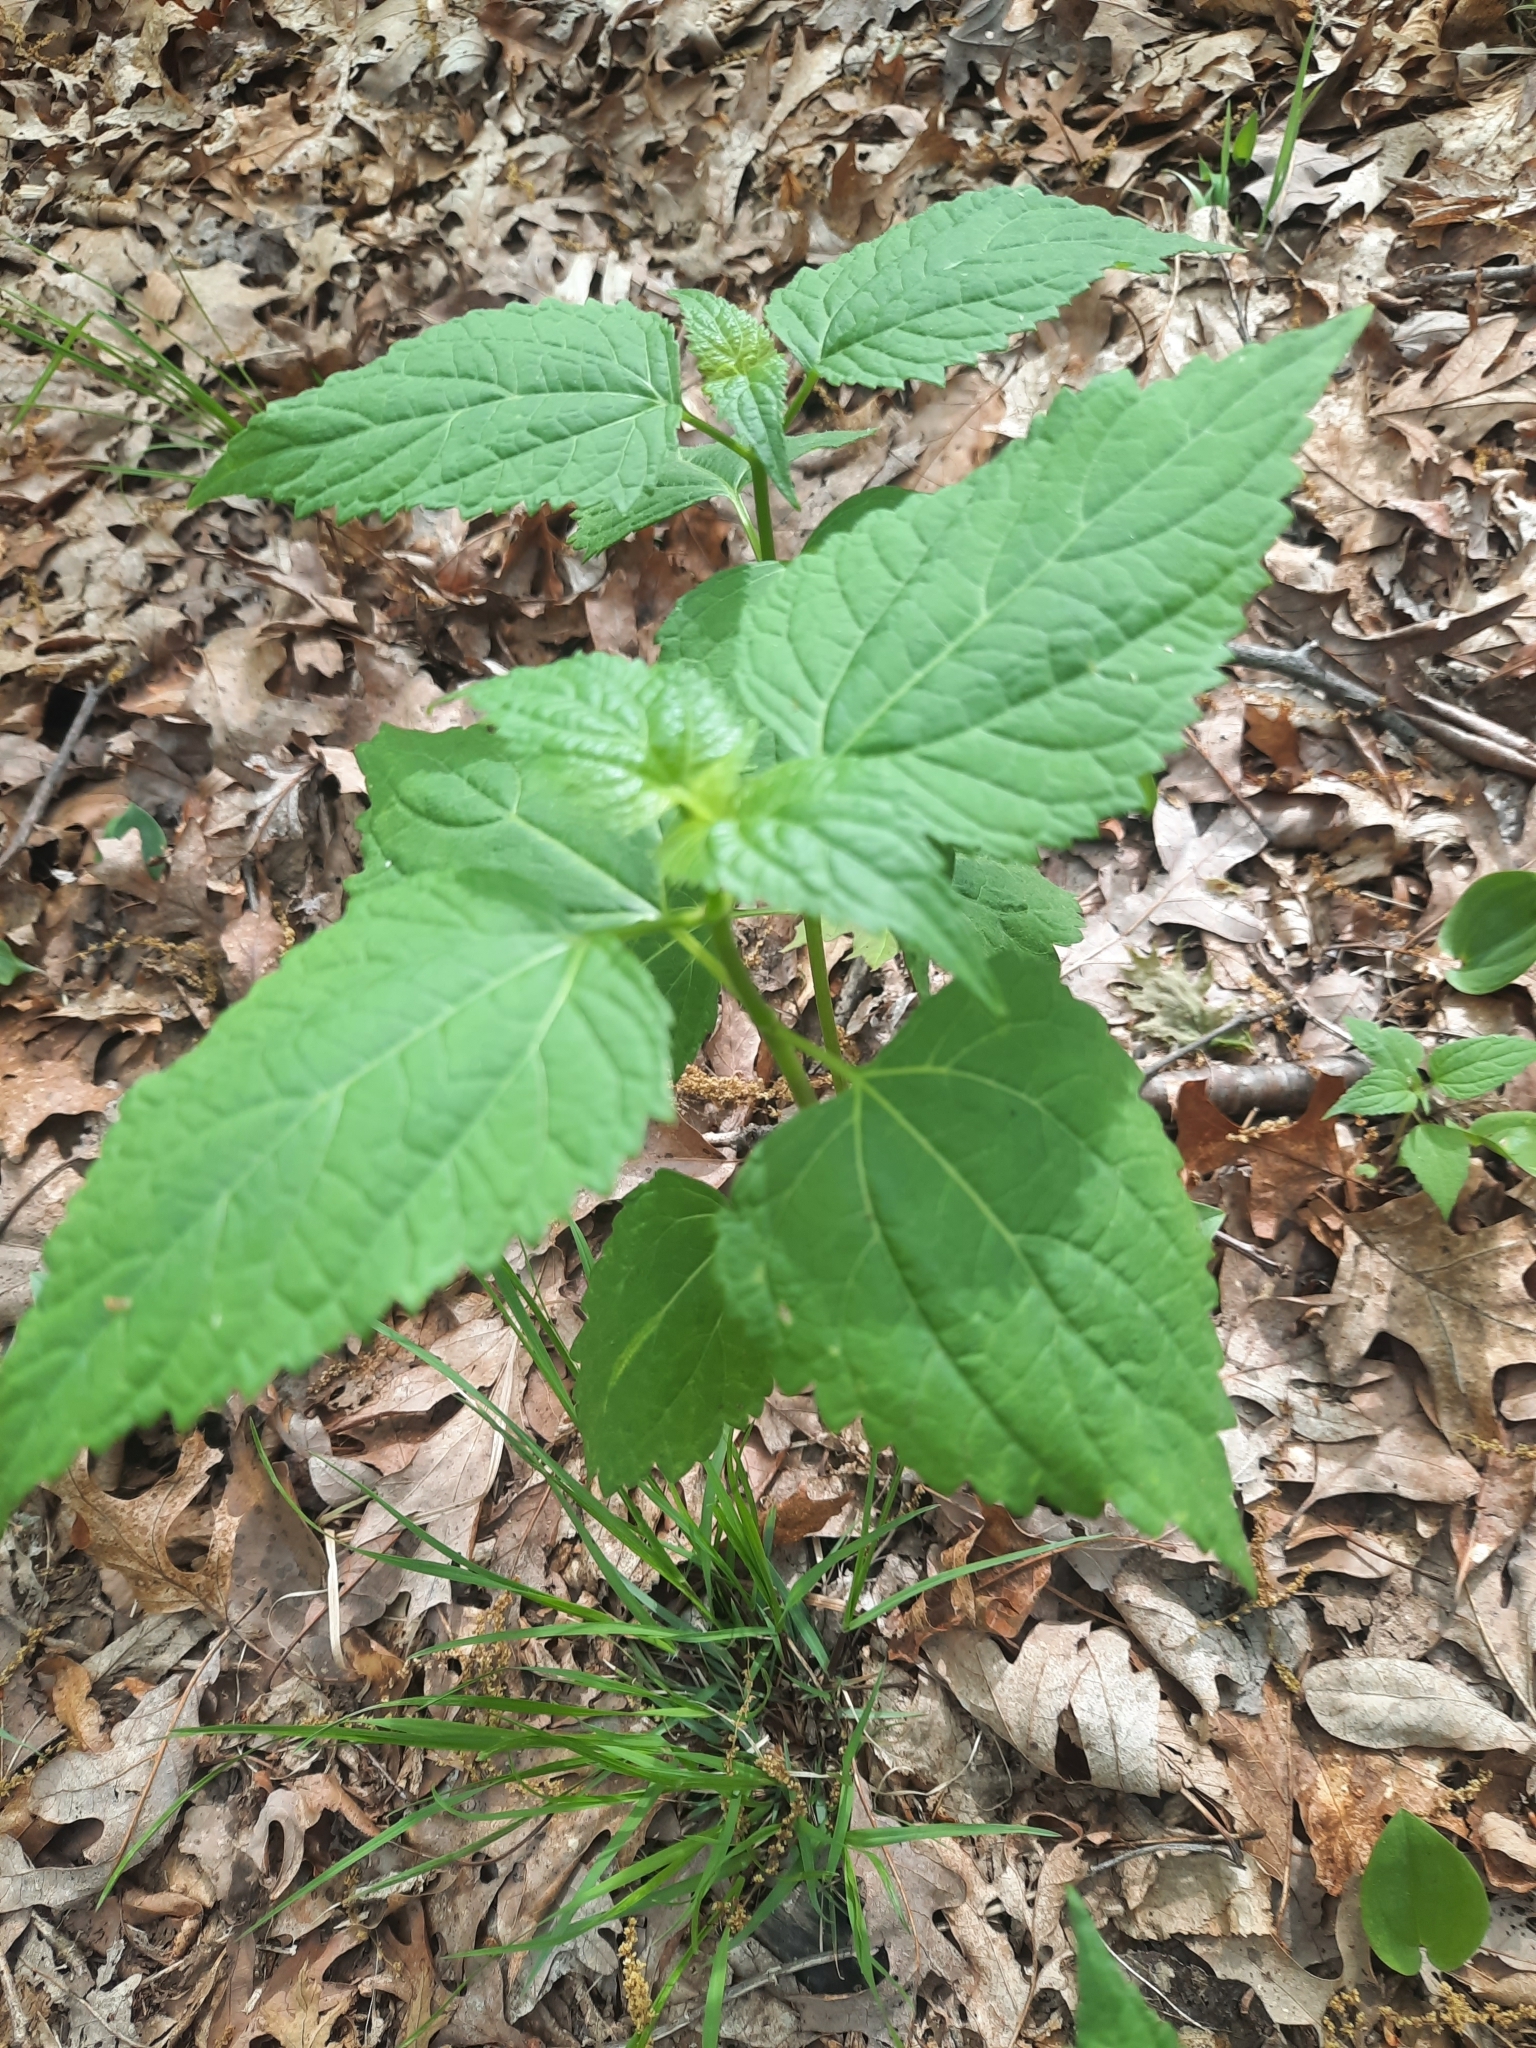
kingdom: Plantae
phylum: Tracheophyta
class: Magnoliopsida
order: Asterales
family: Asteraceae
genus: Ageratina
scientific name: Ageratina altissima
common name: White snakeroot
